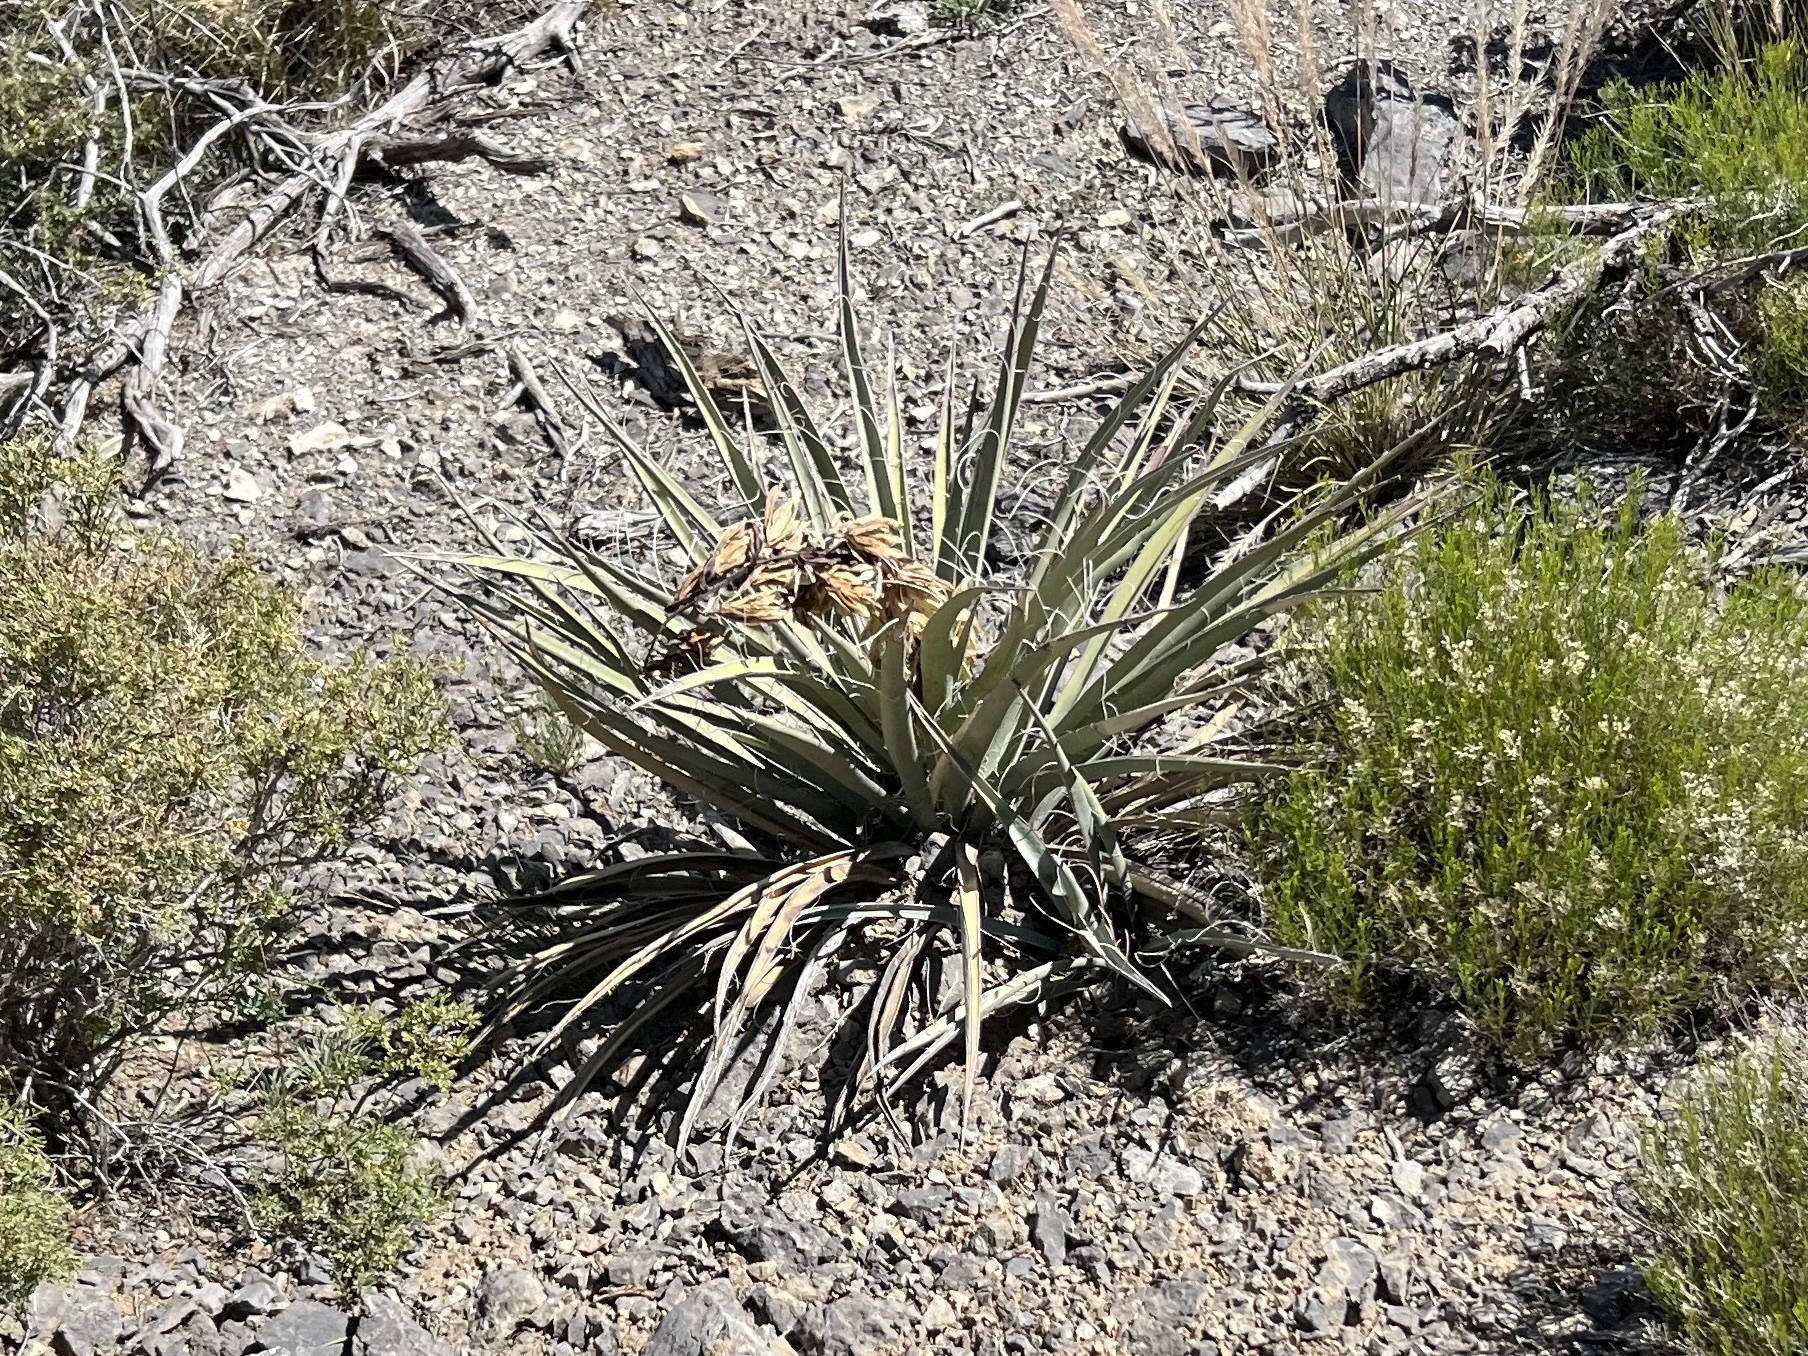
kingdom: Plantae
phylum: Tracheophyta
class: Liliopsida
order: Asparagales
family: Asparagaceae
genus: Yucca
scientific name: Yucca baccata
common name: Banana yucca
